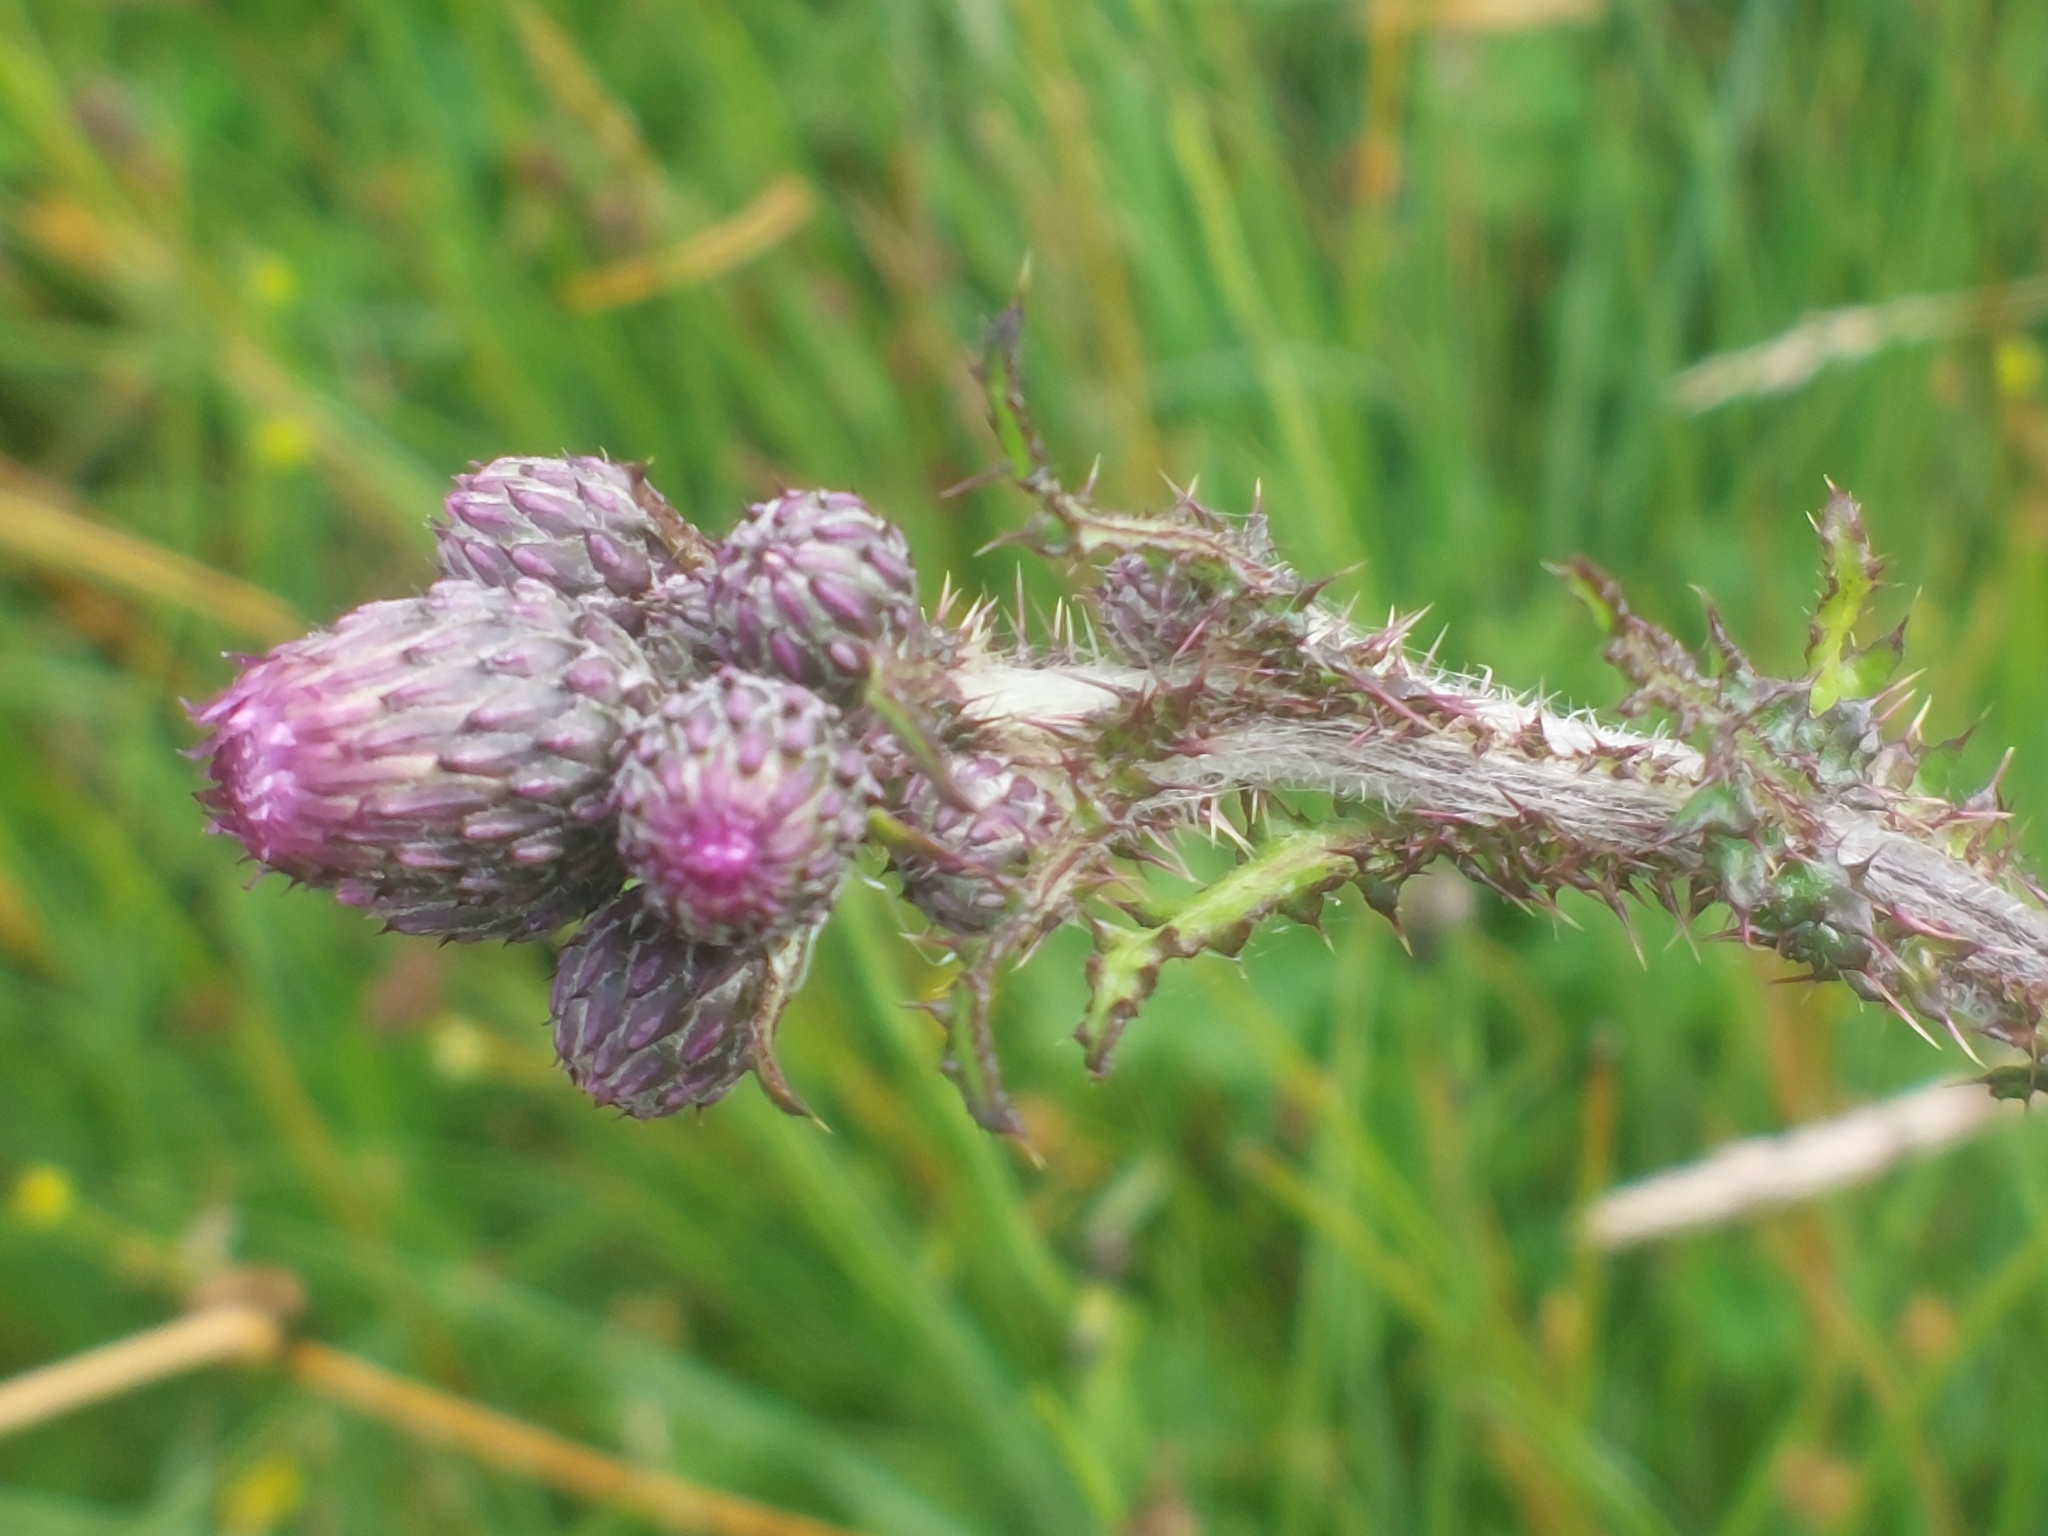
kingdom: Plantae
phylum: Tracheophyta
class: Magnoliopsida
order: Asterales
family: Asteraceae
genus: Cirsium
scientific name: Cirsium palustre
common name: Marsh thistle
